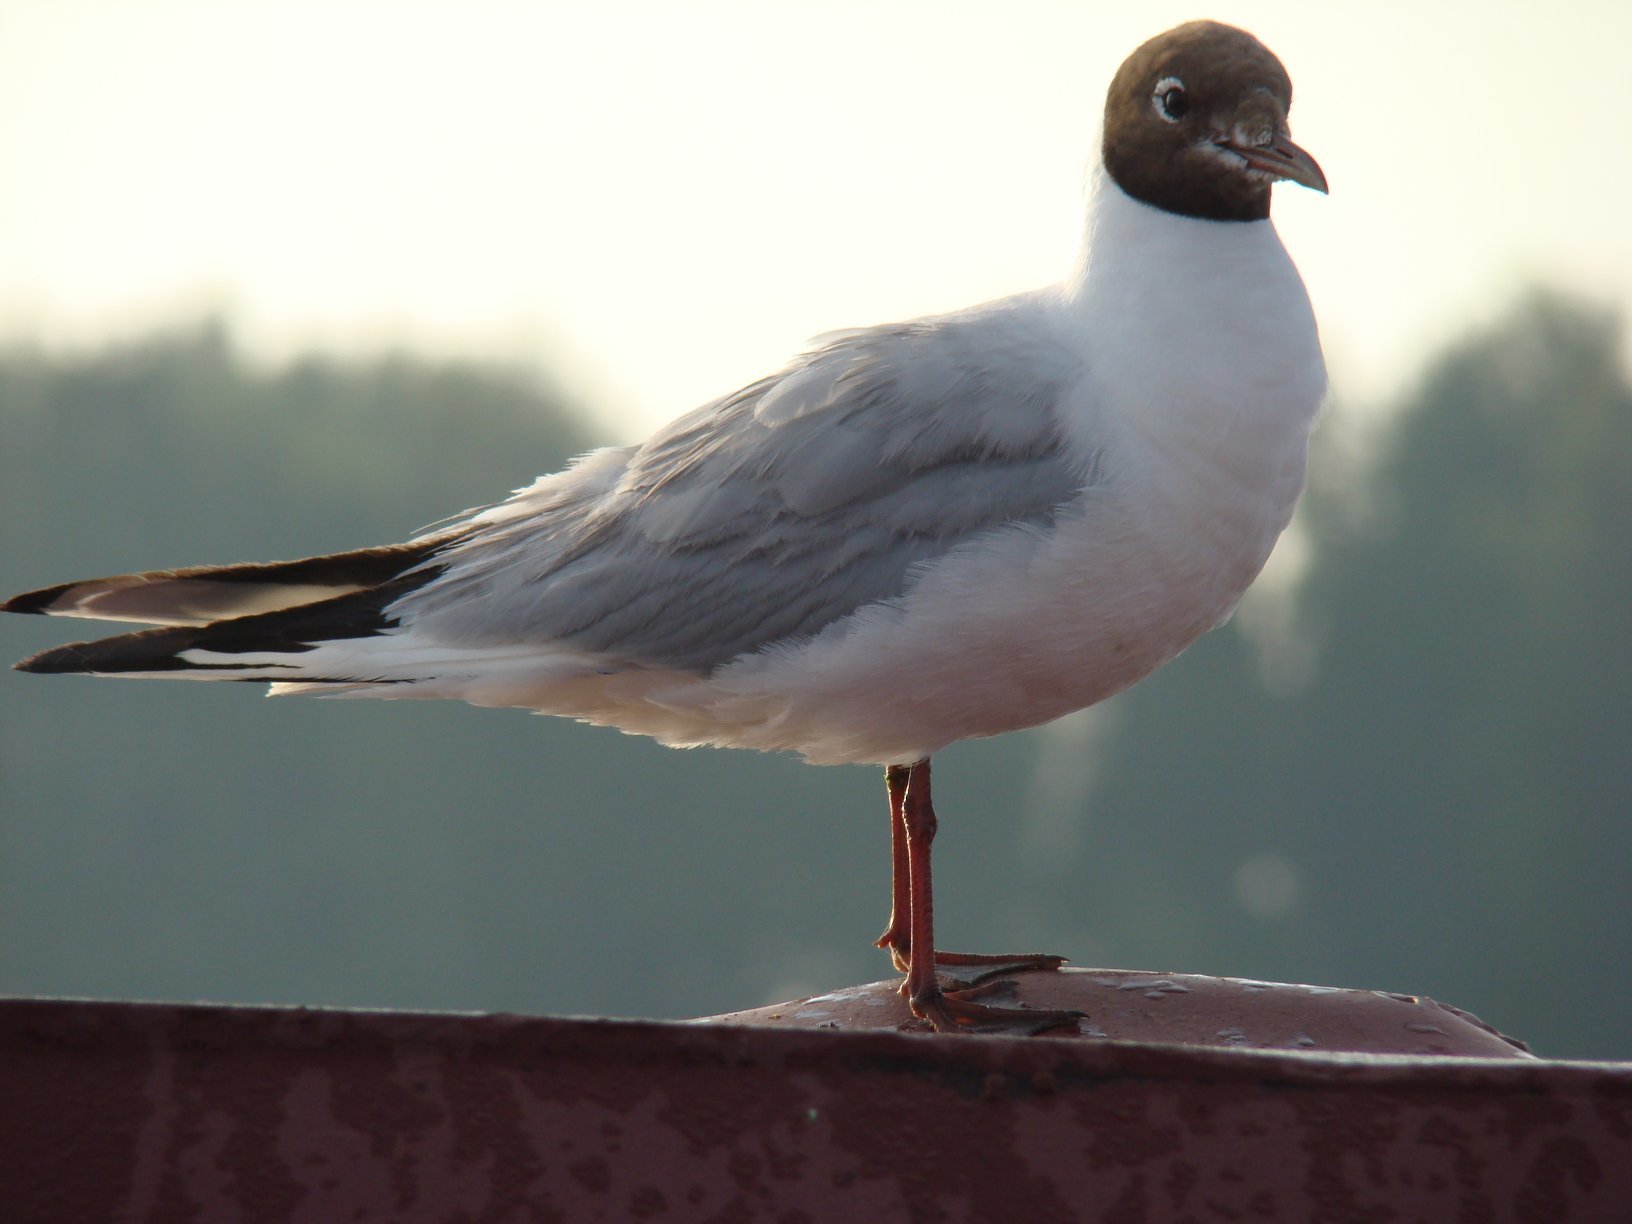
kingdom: Animalia
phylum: Chordata
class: Aves
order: Charadriiformes
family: Laridae
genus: Chroicocephalus
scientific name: Chroicocephalus ridibundus
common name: Black-headed gull
